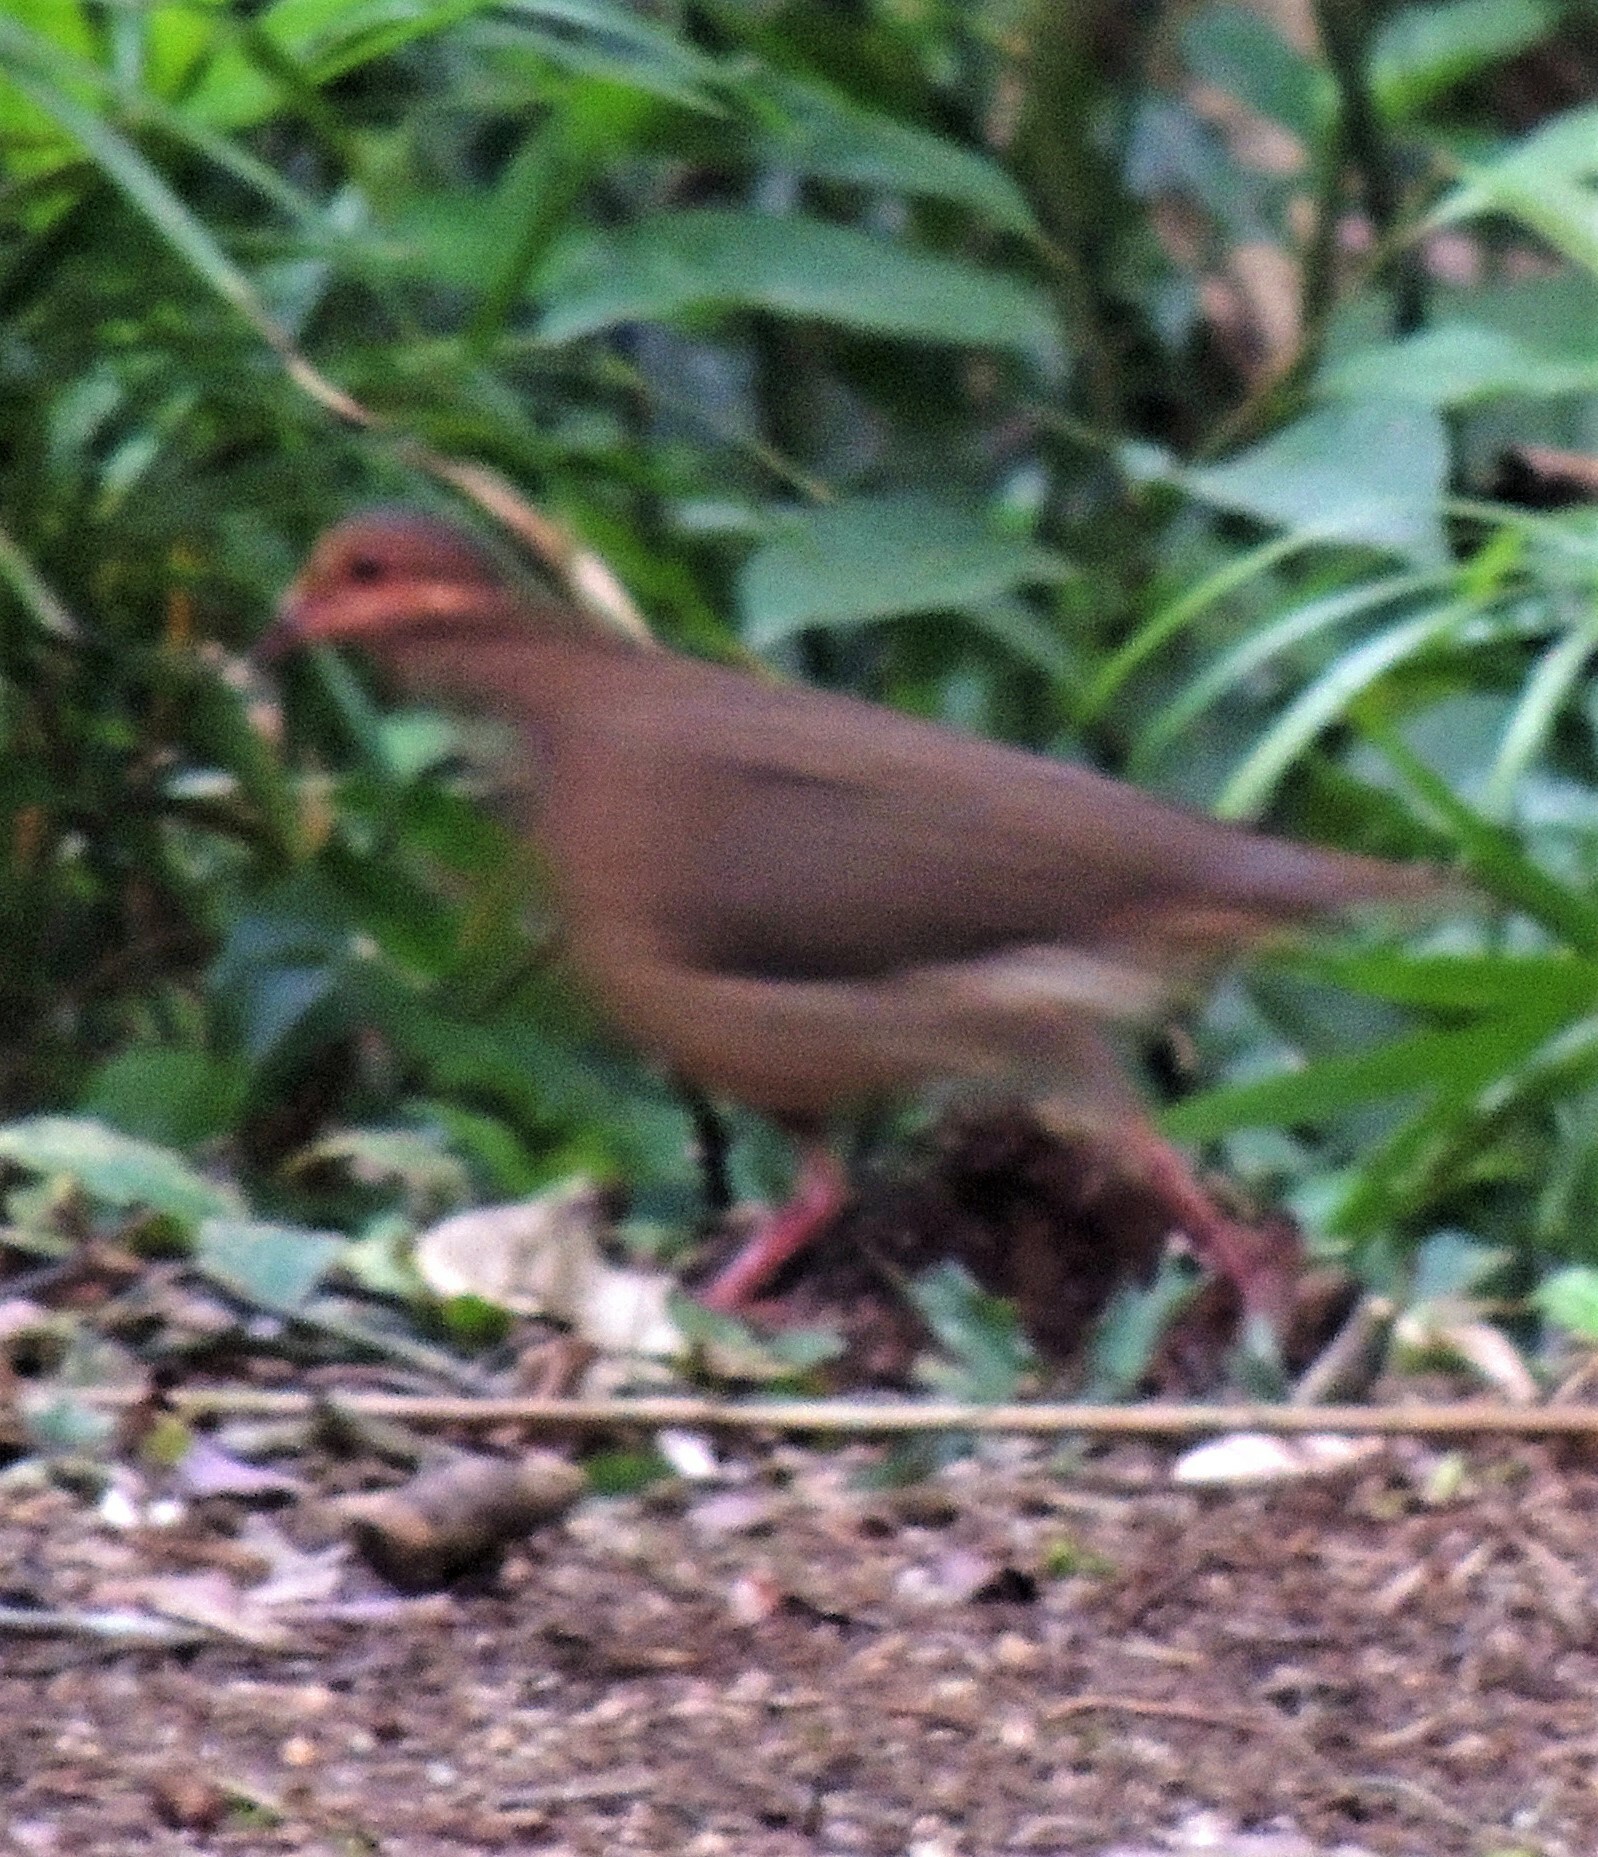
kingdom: Animalia
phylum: Chordata
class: Aves
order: Columbiformes
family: Columbidae
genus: Geotrygon
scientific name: Geotrygon montana
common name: Ruddy quail-dove
